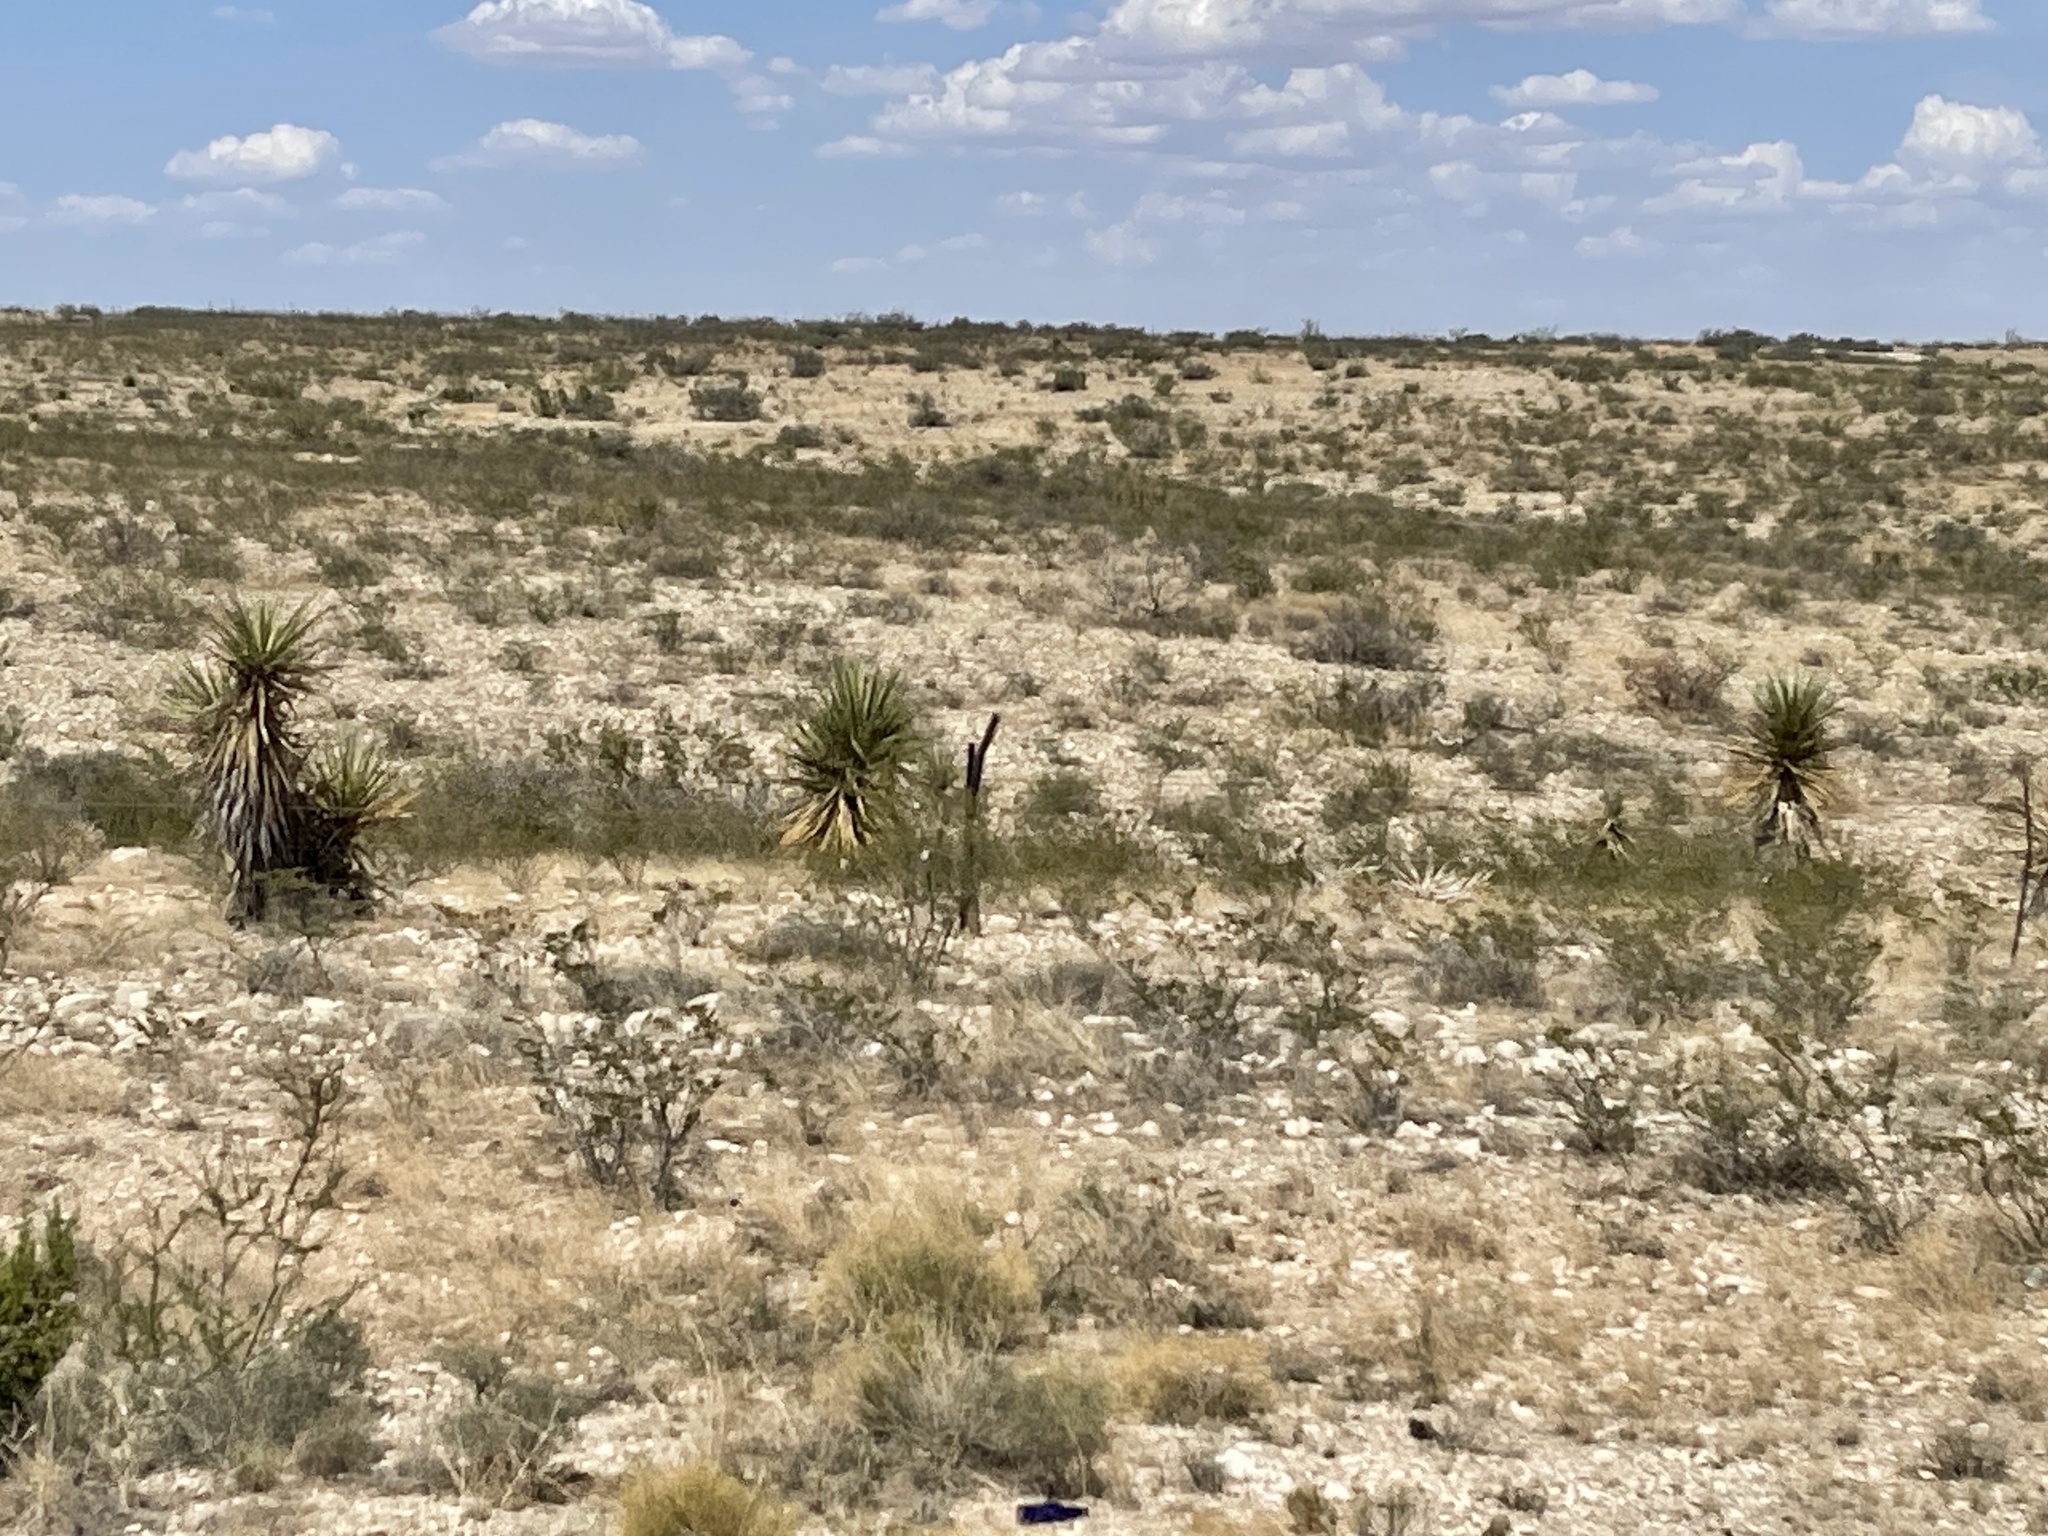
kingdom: Plantae
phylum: Tracheophyta
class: Liliopsida
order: Asparagales
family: Asparagaceae
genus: Yucca
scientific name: Yucca treculiana
